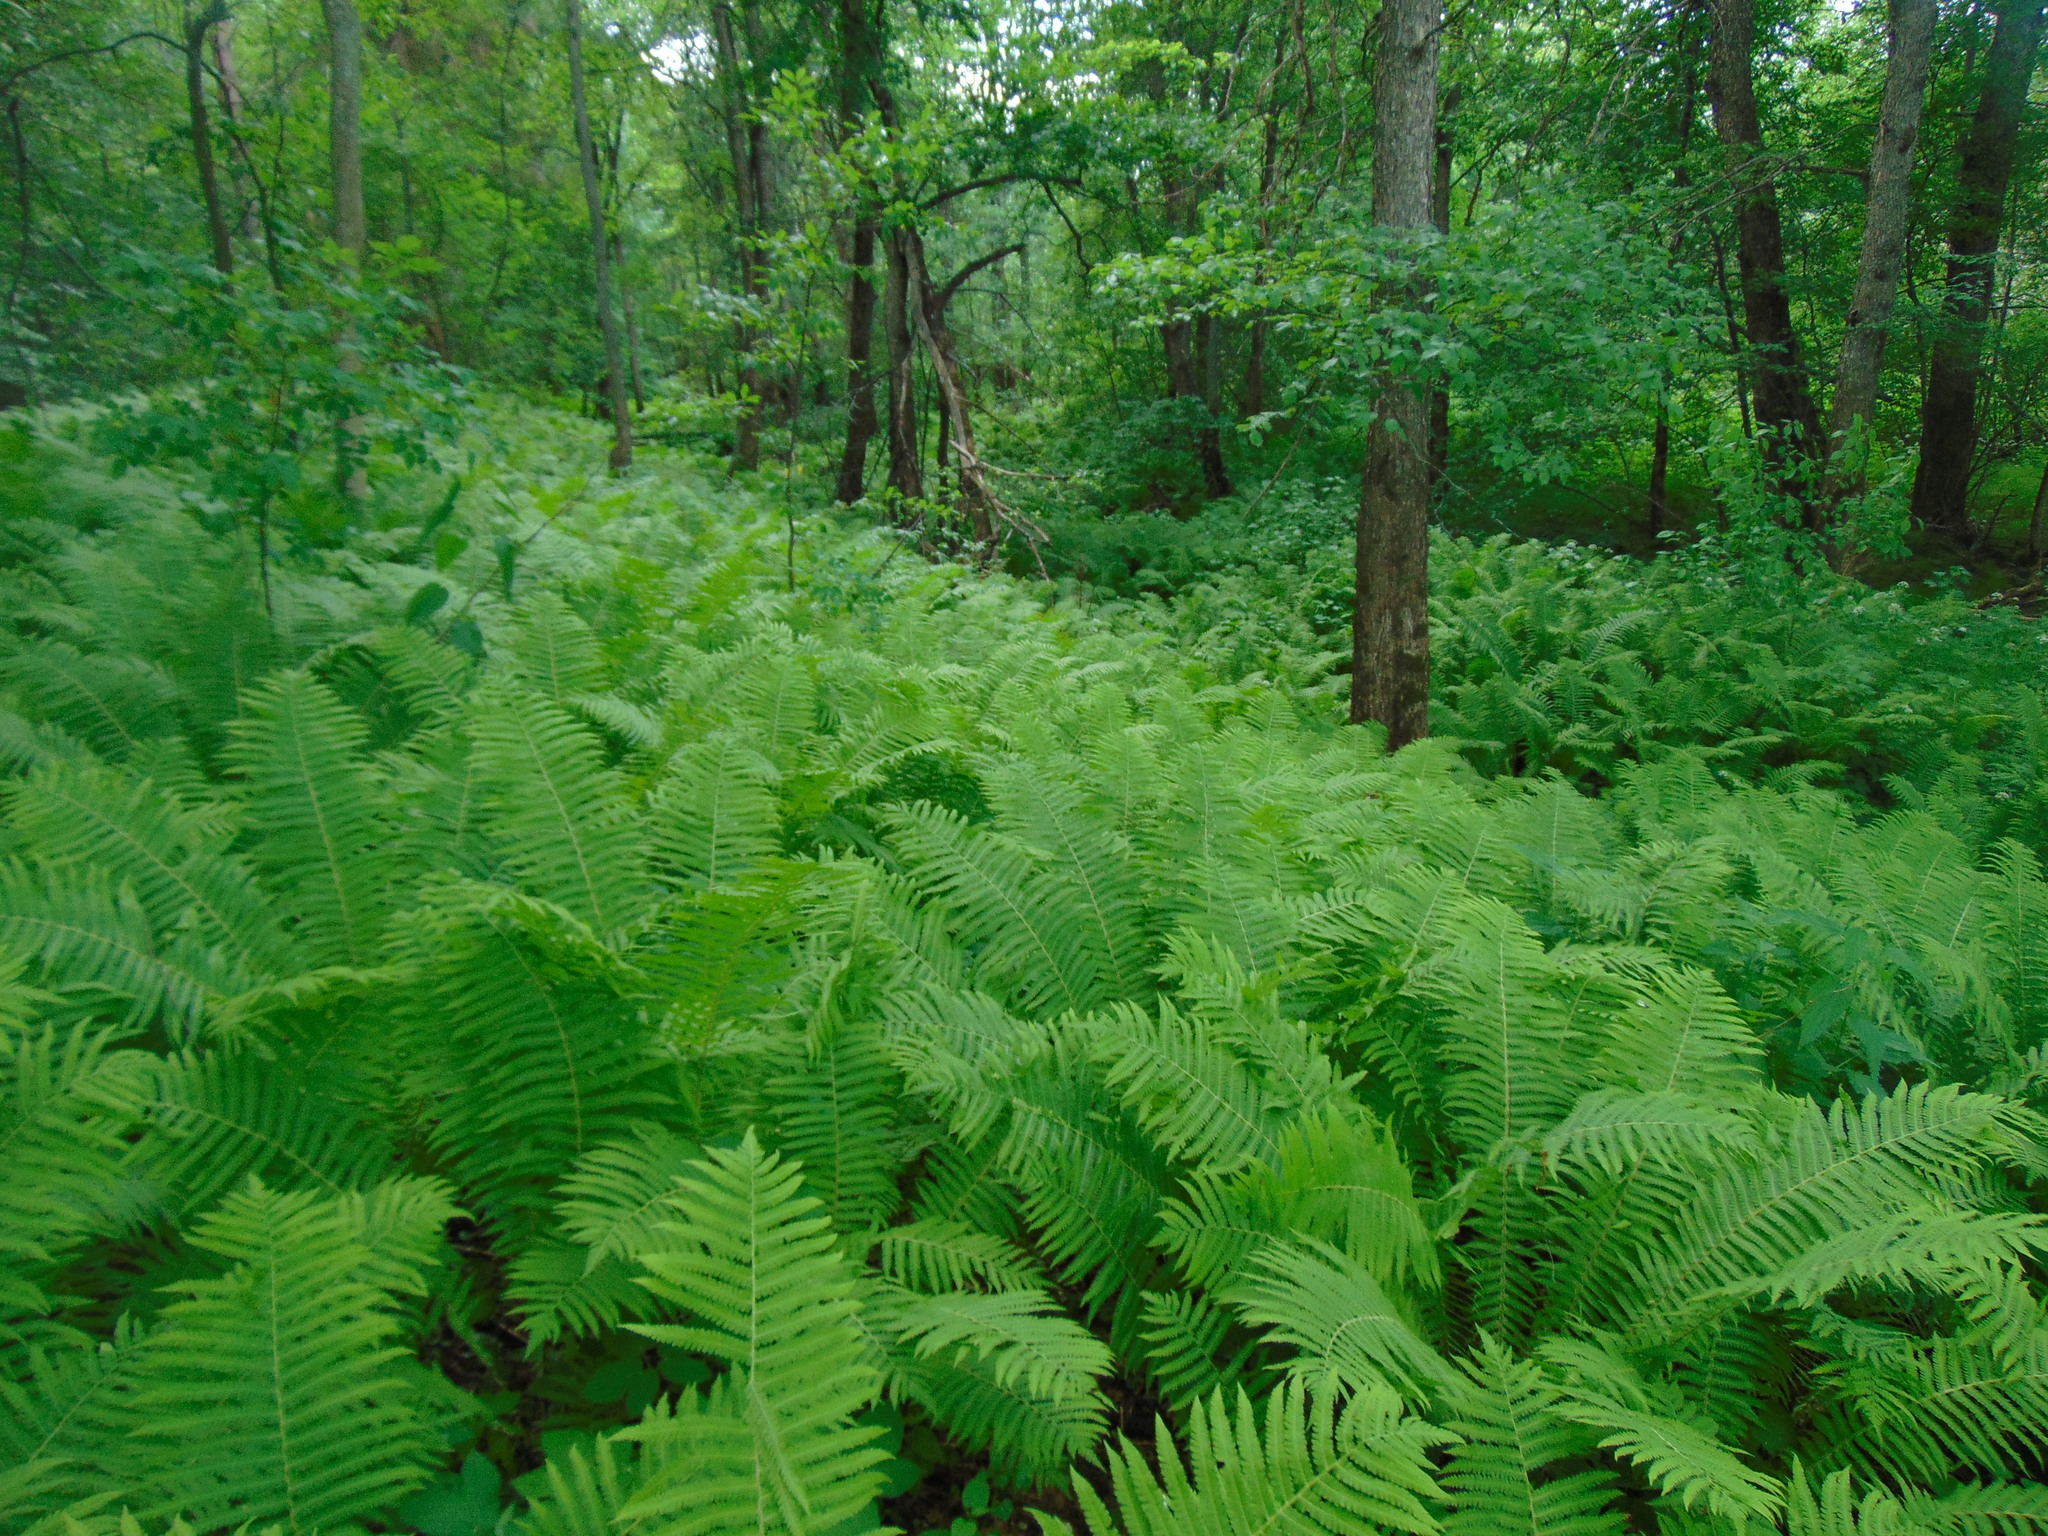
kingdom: Plantae
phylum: Tracheophyta
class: Polypodiopsida
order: Polypodiales
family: Onocleaceae
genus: Matteuccia
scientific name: Matteuccia struthiopteris
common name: Ostrich fern
